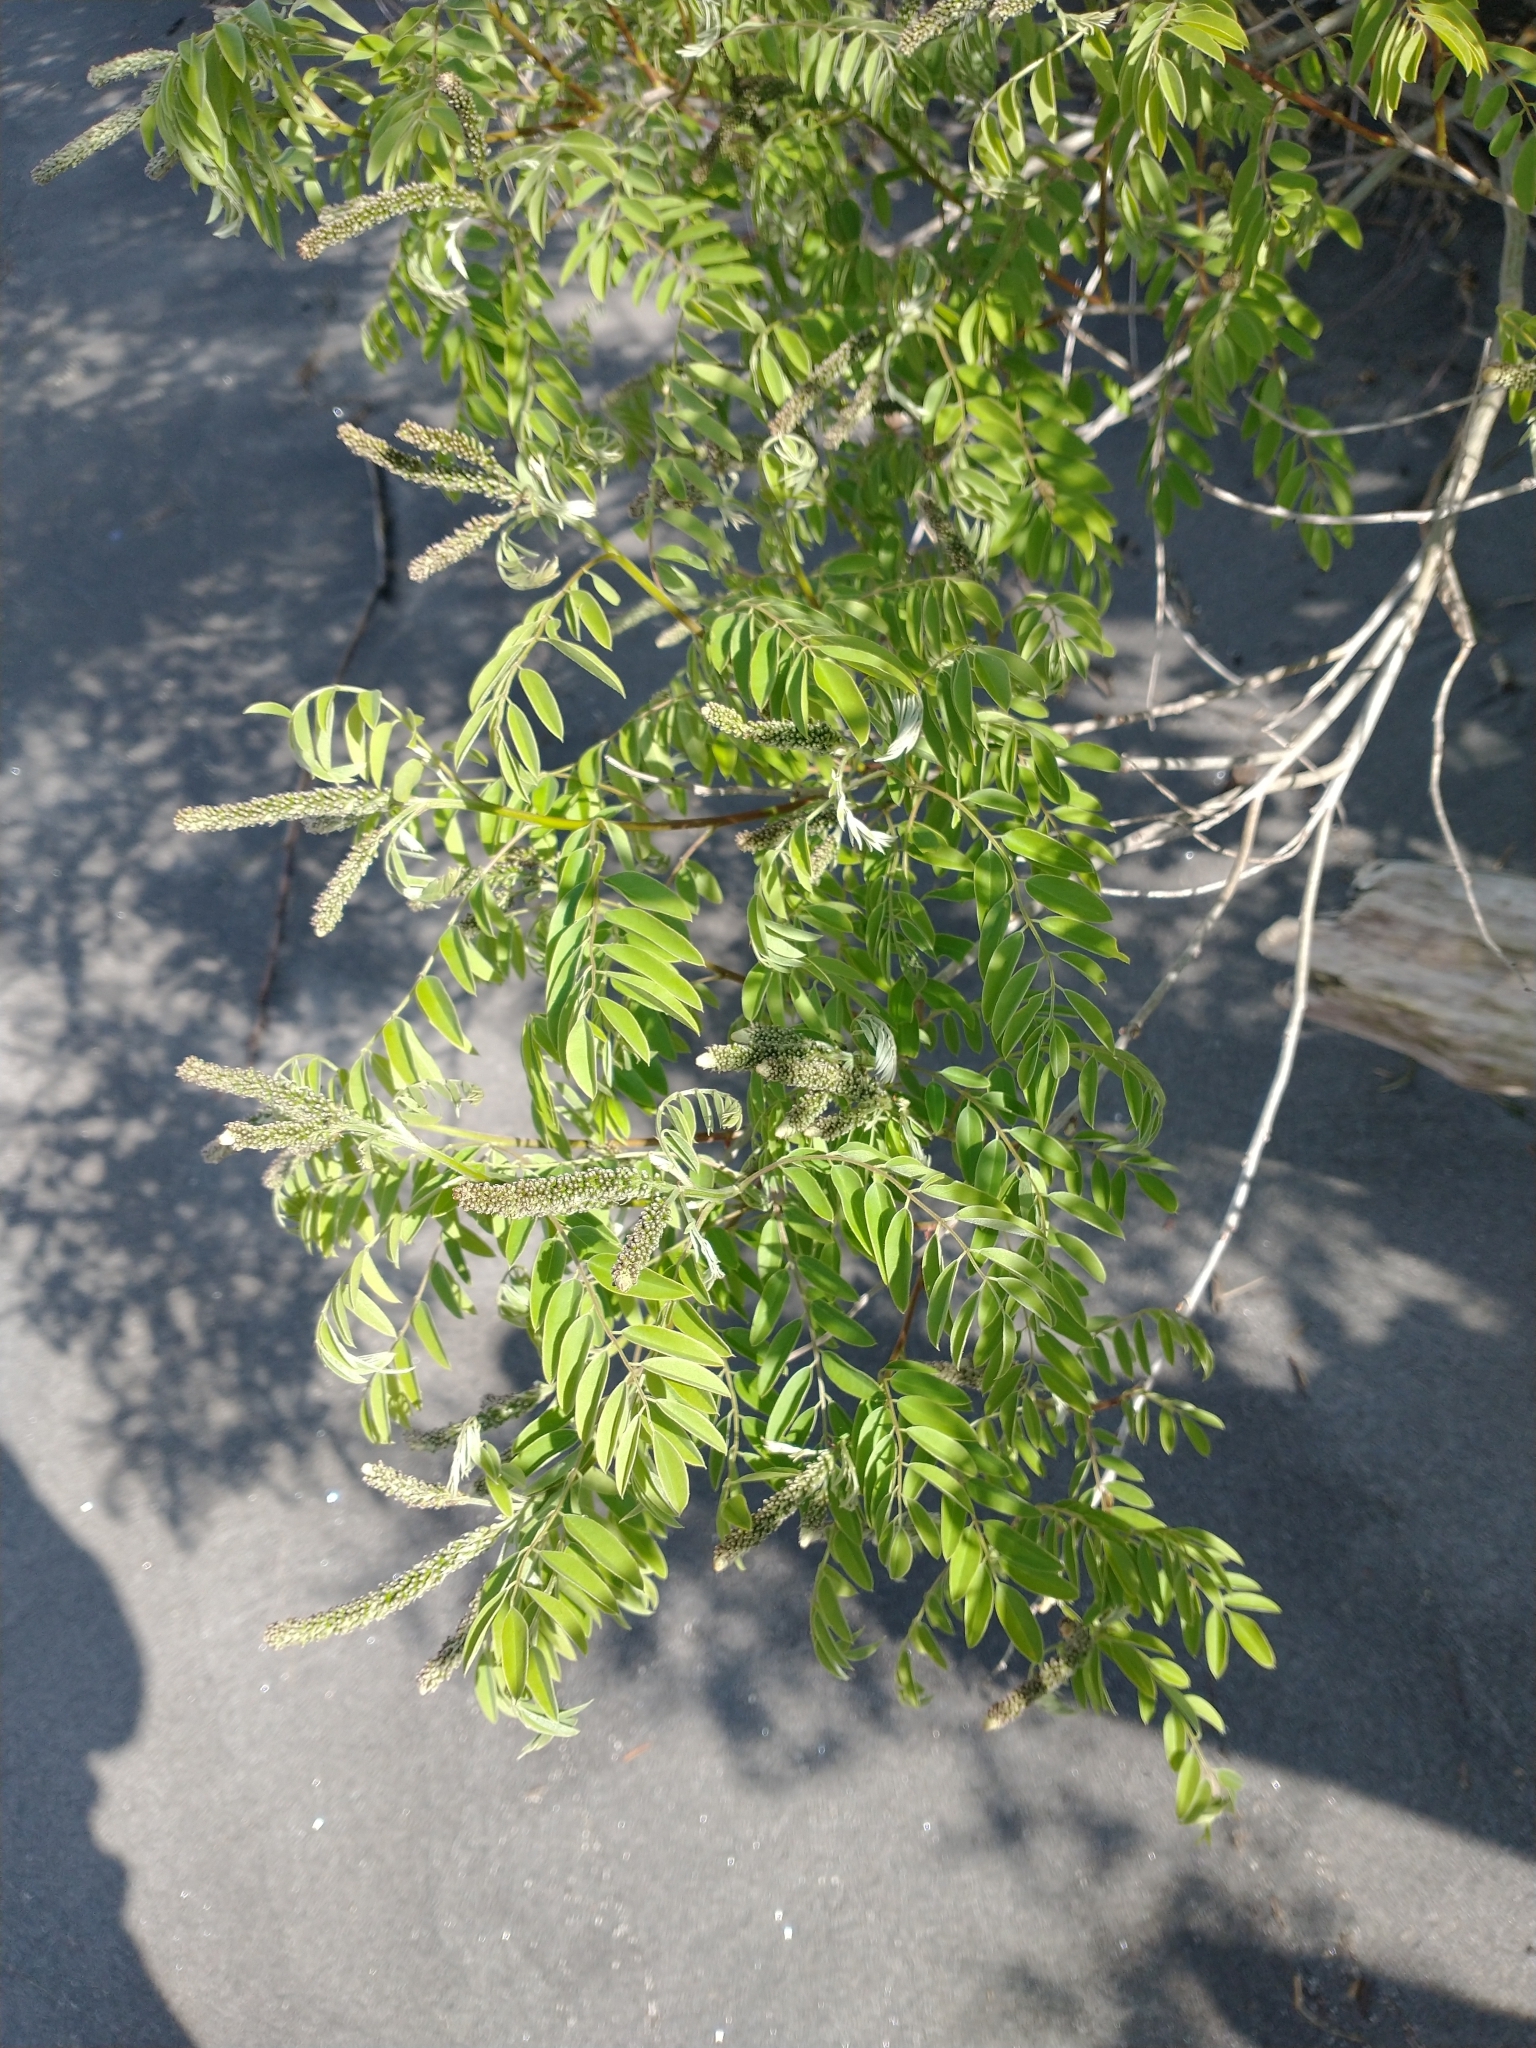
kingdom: Plantae
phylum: Tracheophyta
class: Magnoliopsida
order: Fabales
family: Fabaceae
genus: Amorpha
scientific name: Amorpha fruticosa
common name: False indigo
